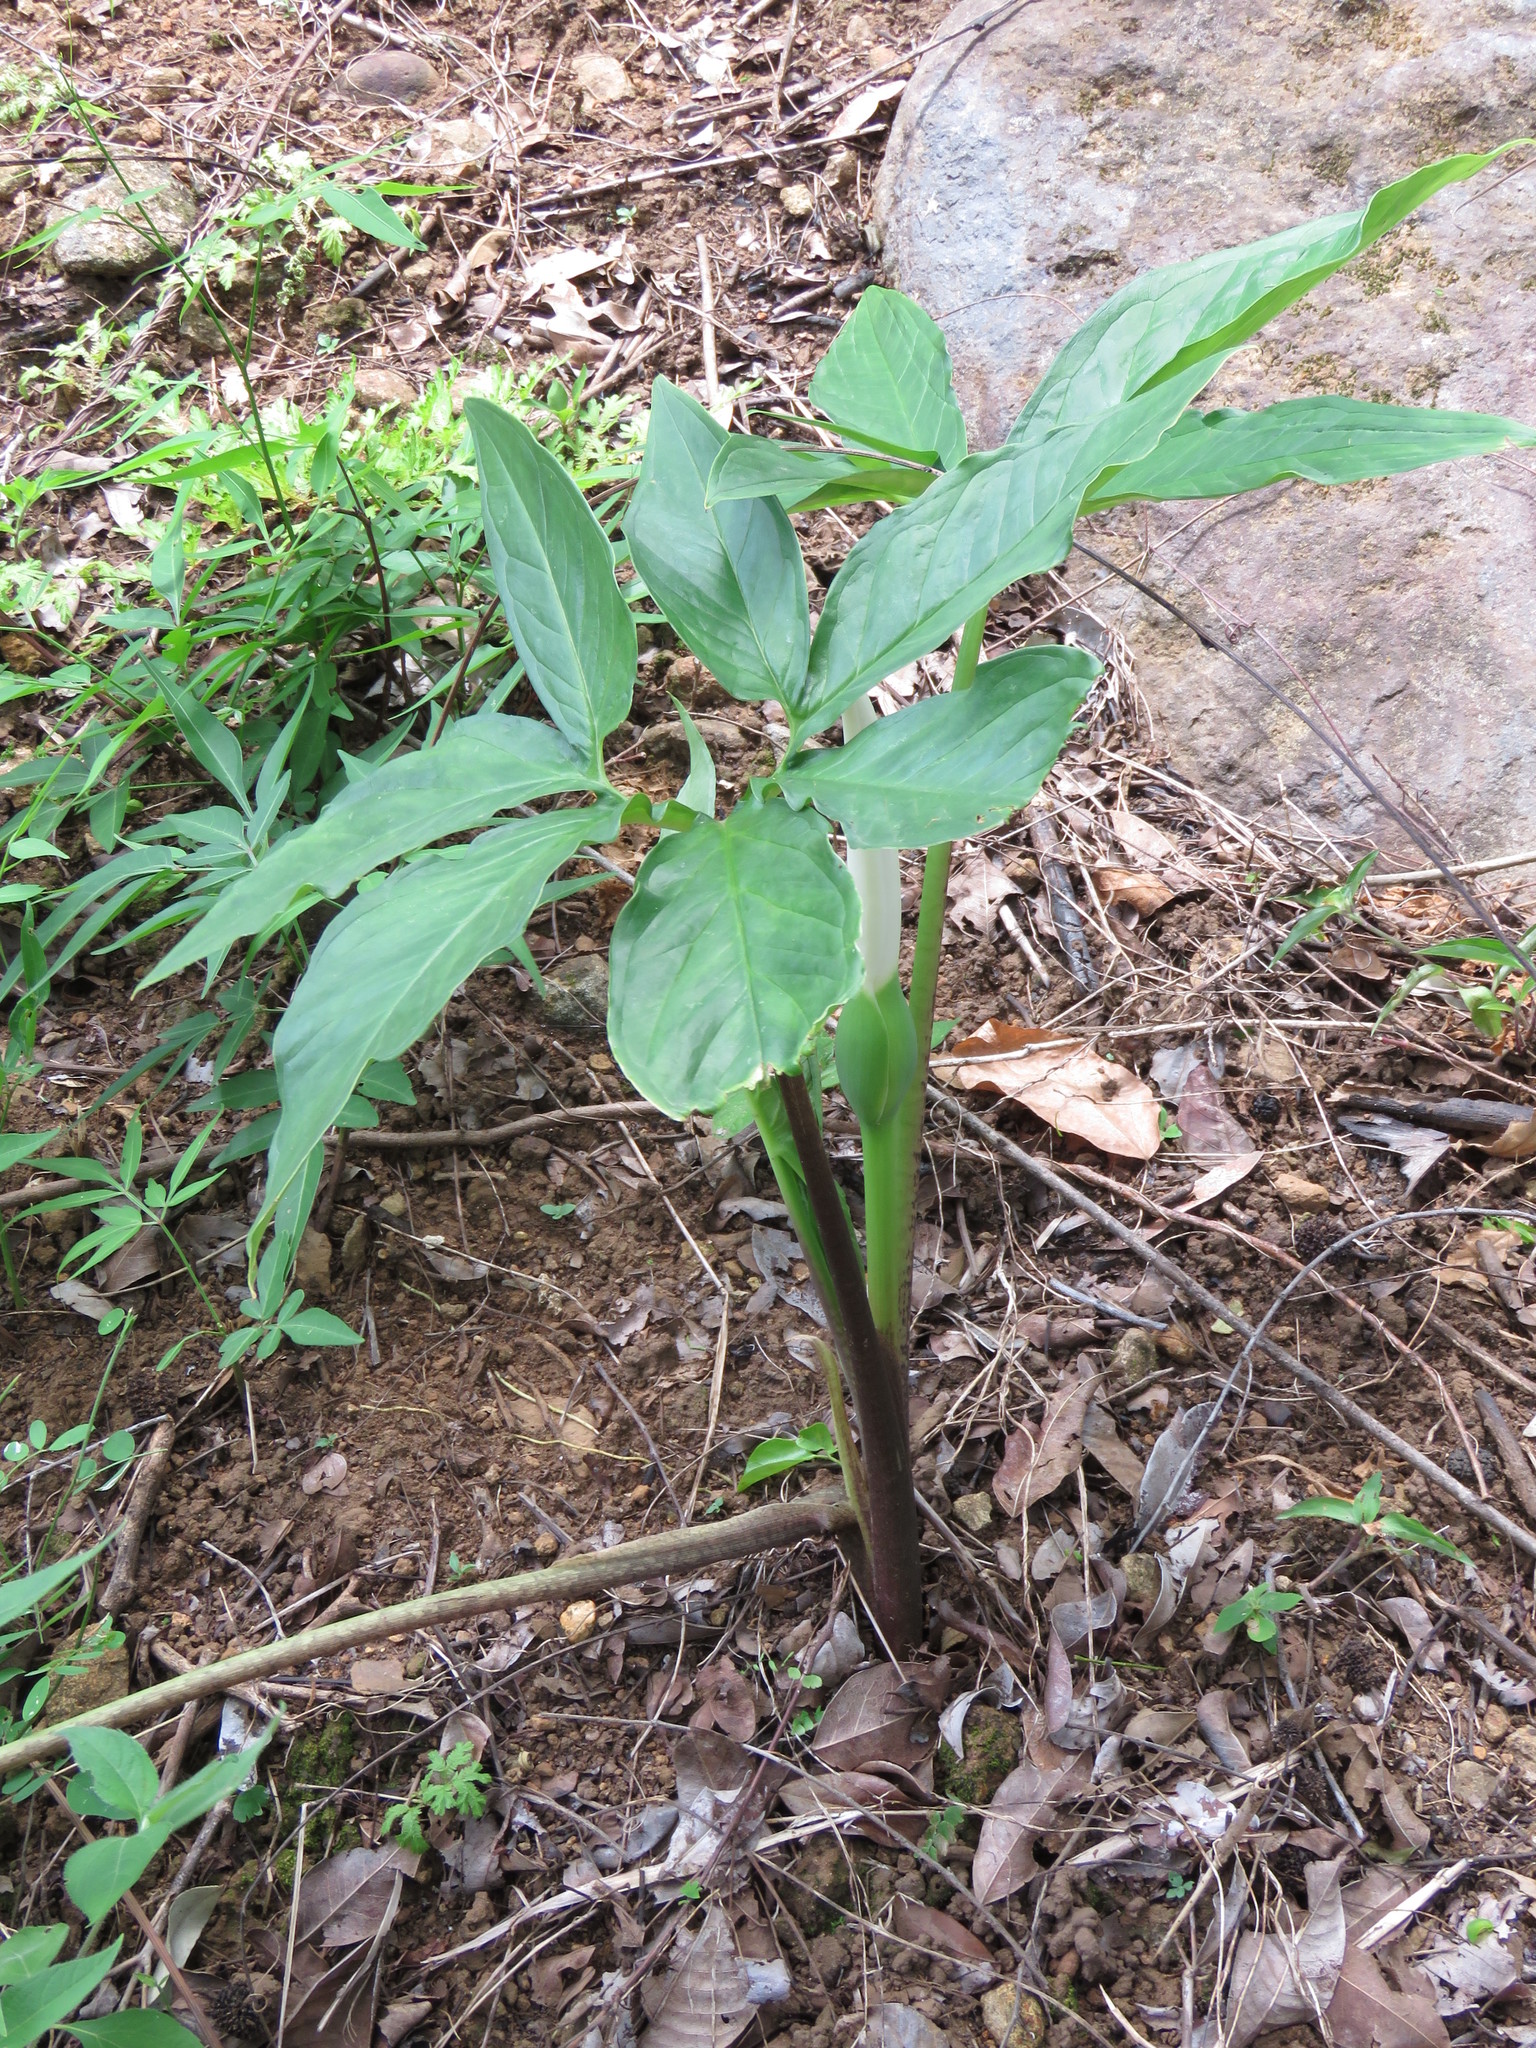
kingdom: Plantae
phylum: Tracheophyta
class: Liliopsida
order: Alismatales
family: Araceae
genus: Xanthosoma
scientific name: Xanthosoma wendlandii
